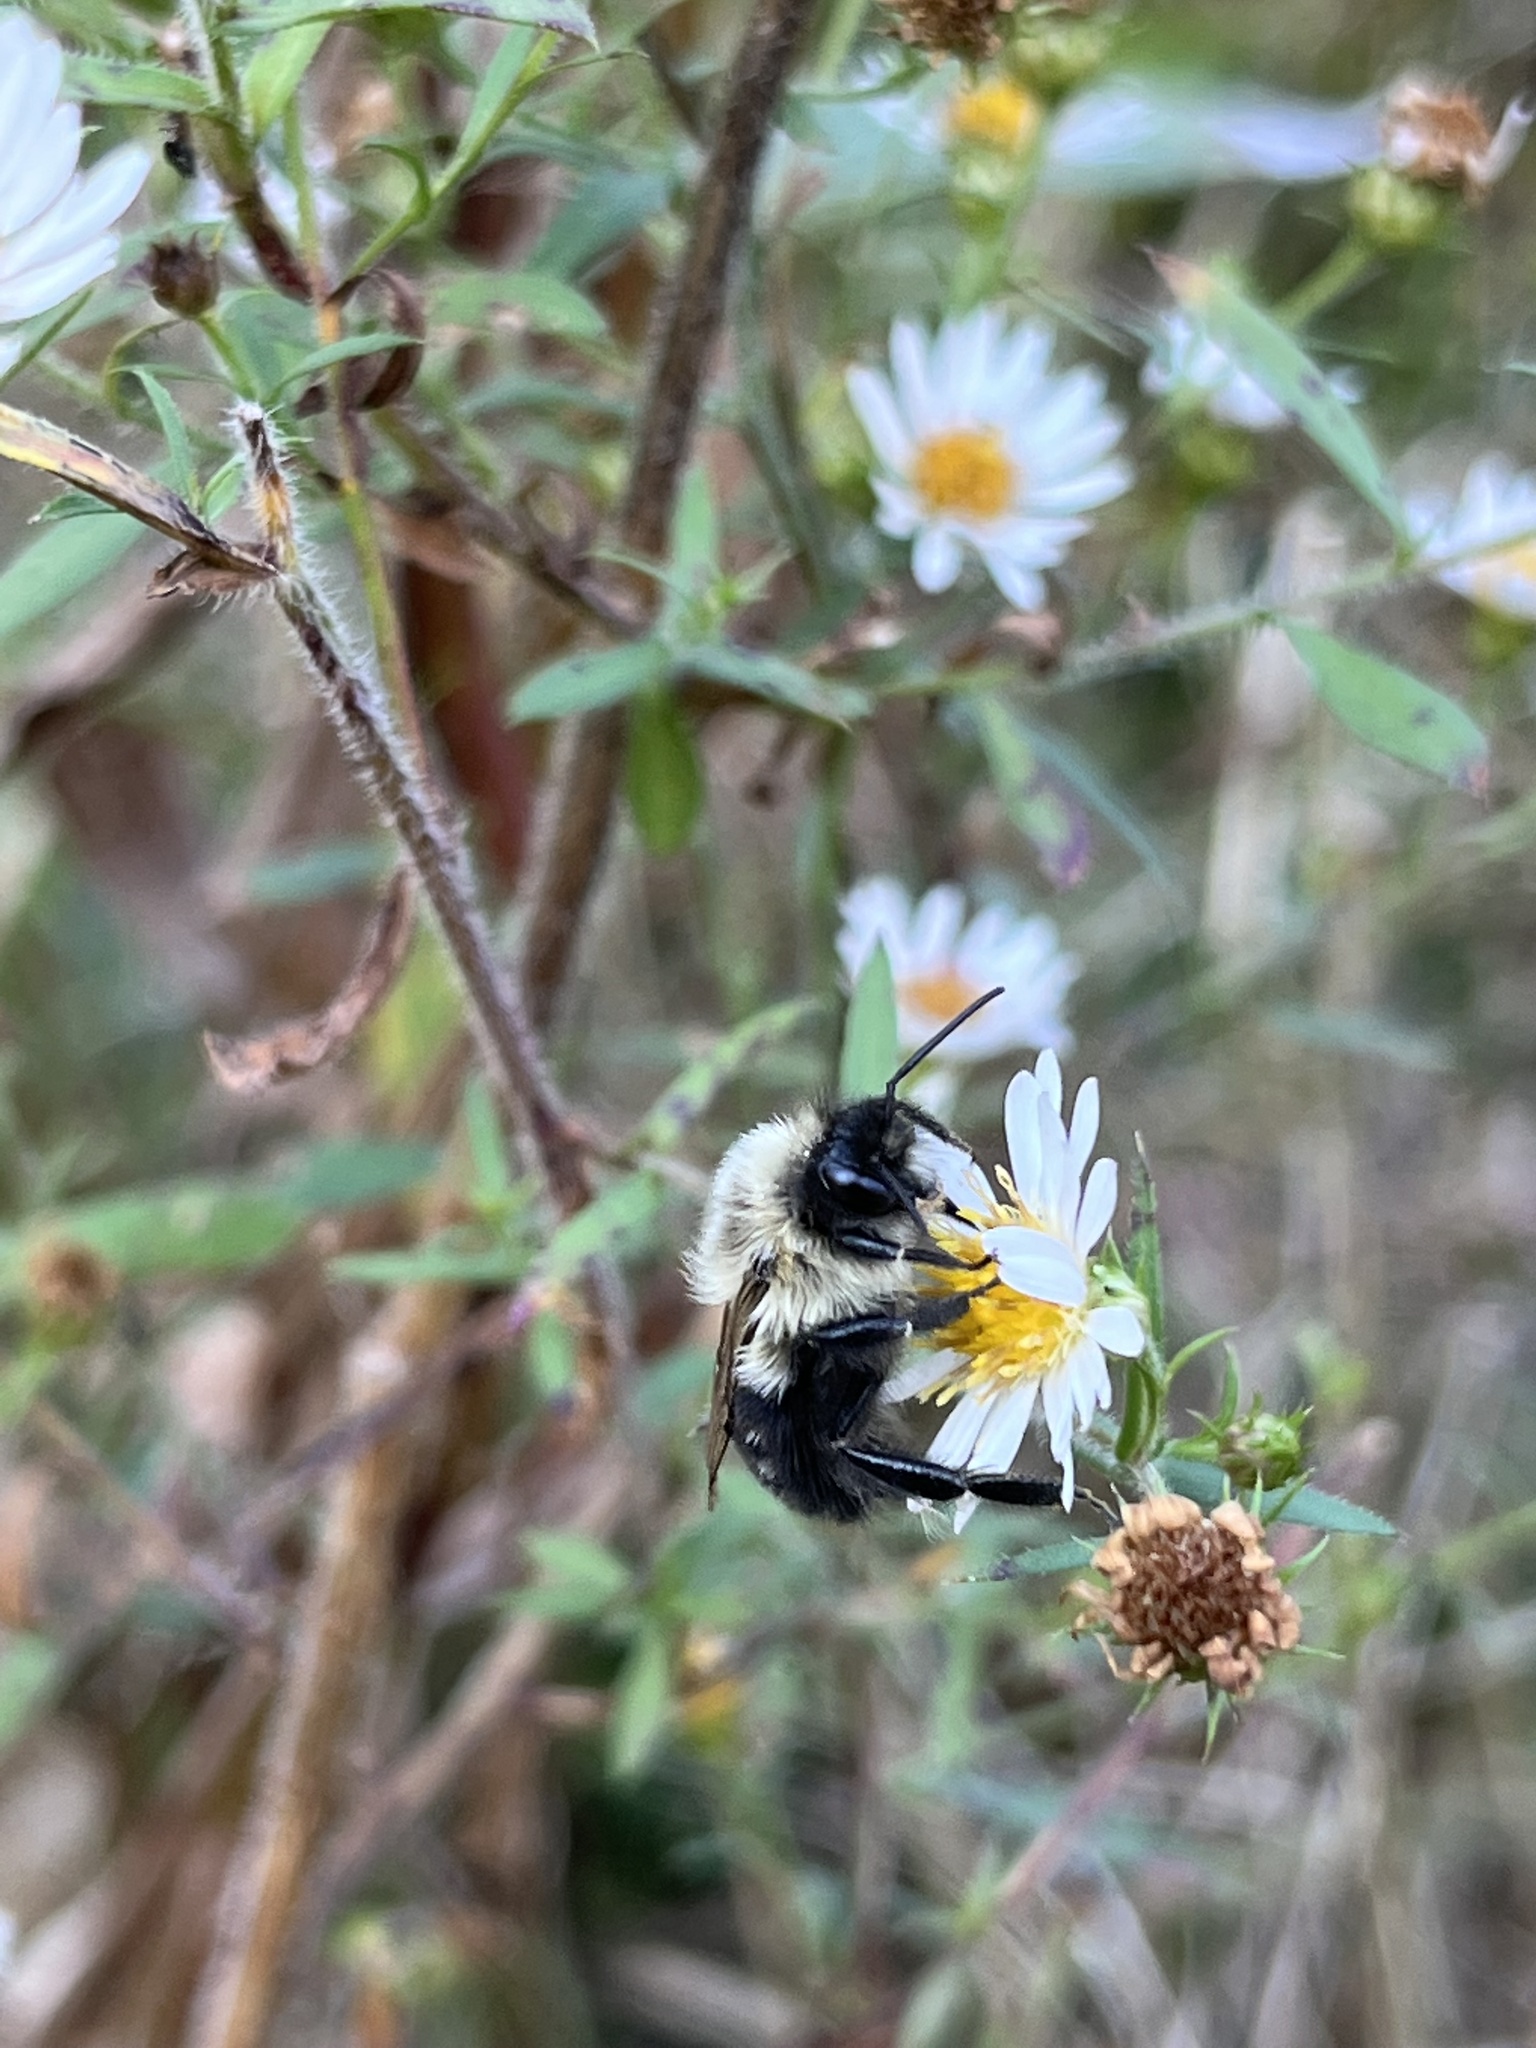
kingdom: Animalia
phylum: Arthropoda
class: Insecta
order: Hymenoptera
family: Apidae
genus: Bombus
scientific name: Bombus impatiens
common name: Common eastern bumble bee
